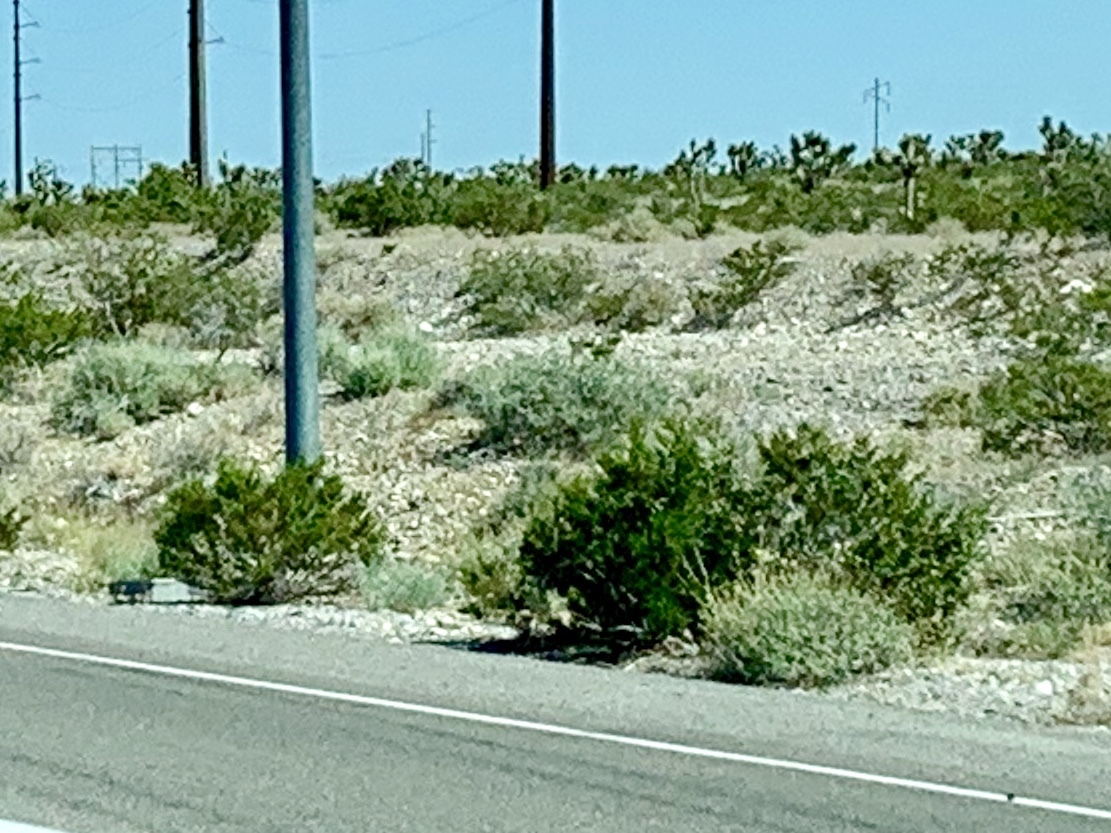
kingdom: Plantae
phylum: Tracheophyta
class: Magnoliopsida
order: Zygophyllales
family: Zygophyllaceae
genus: Larrea
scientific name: Larrea tridentata
